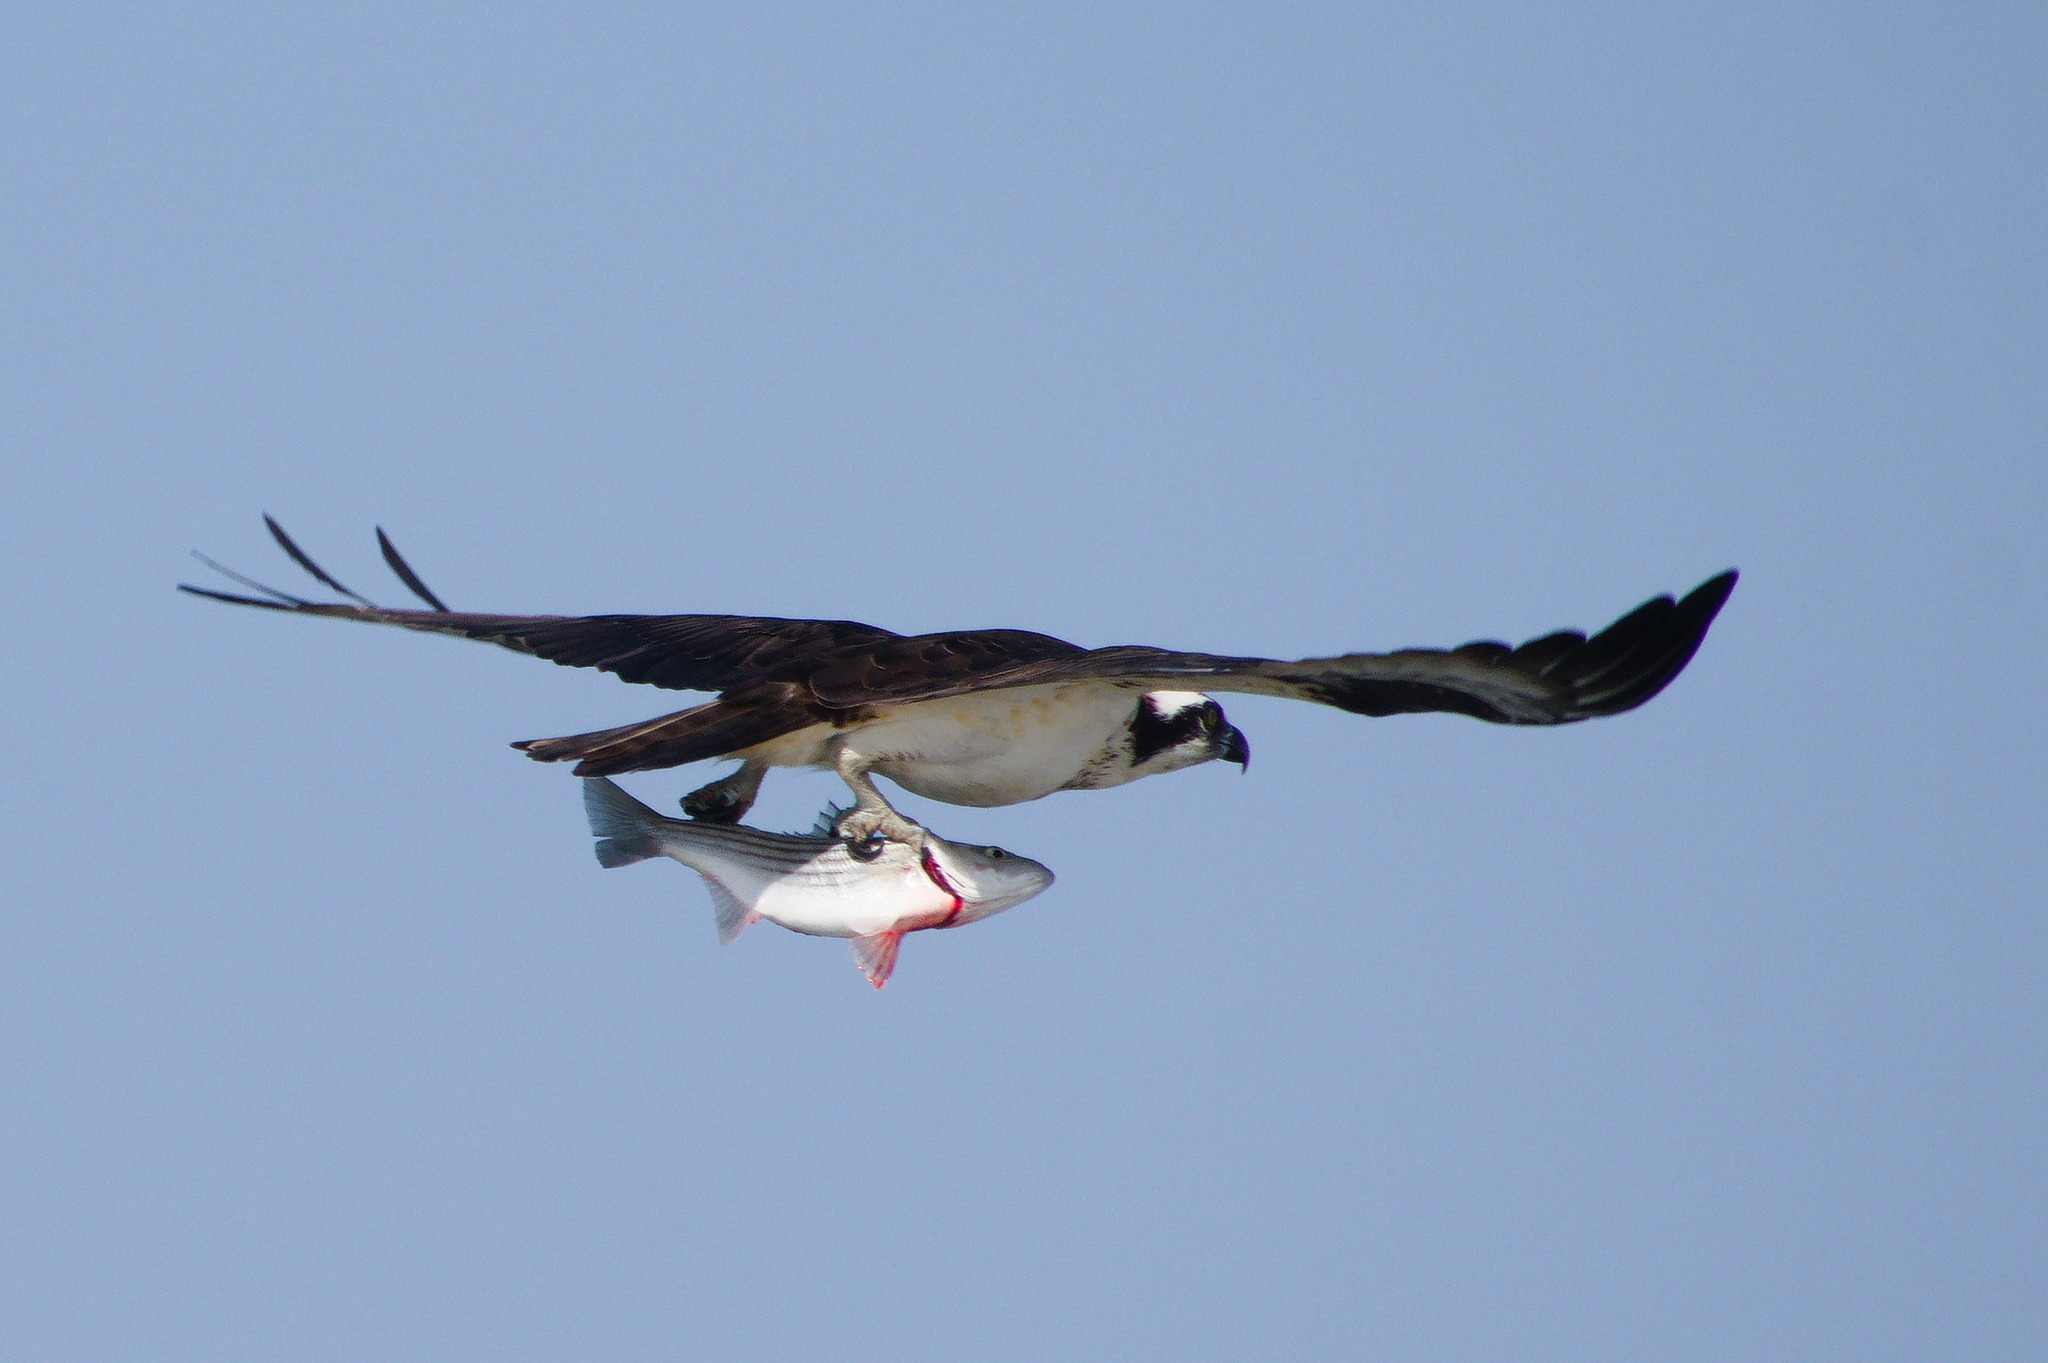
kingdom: Animalia
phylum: Chordata
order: Perciformes
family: Moronidae
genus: Morone
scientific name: Morone saxatilis
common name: Striped bass
